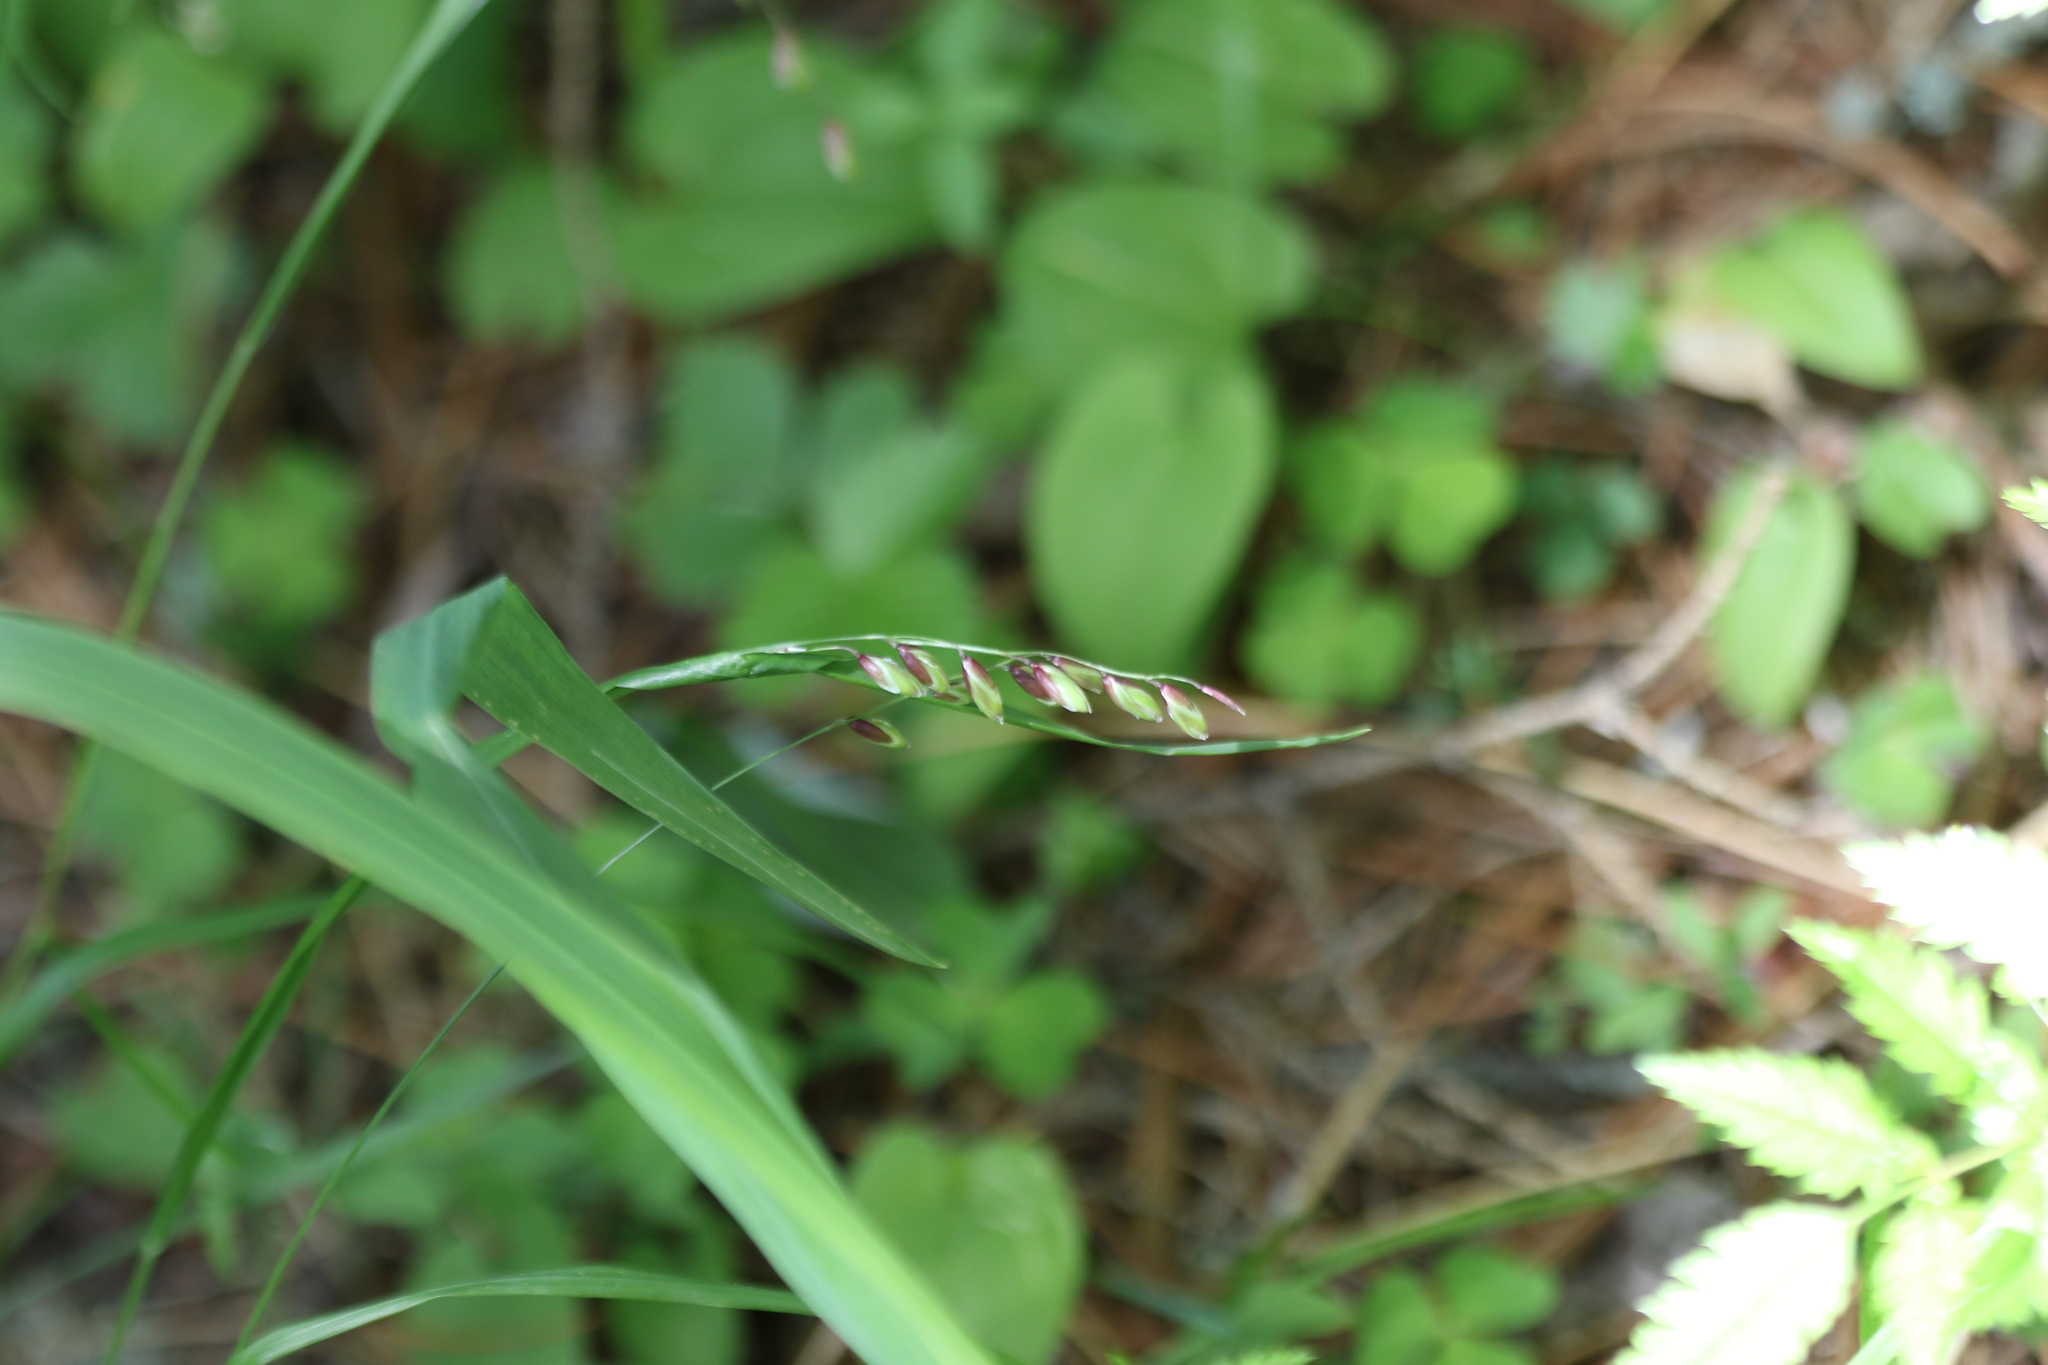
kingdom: Plantae
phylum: Tracheophyta
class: Liliopsida
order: Poales
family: Poaceae
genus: Melica
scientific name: Melica nutans
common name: Mountain melick
